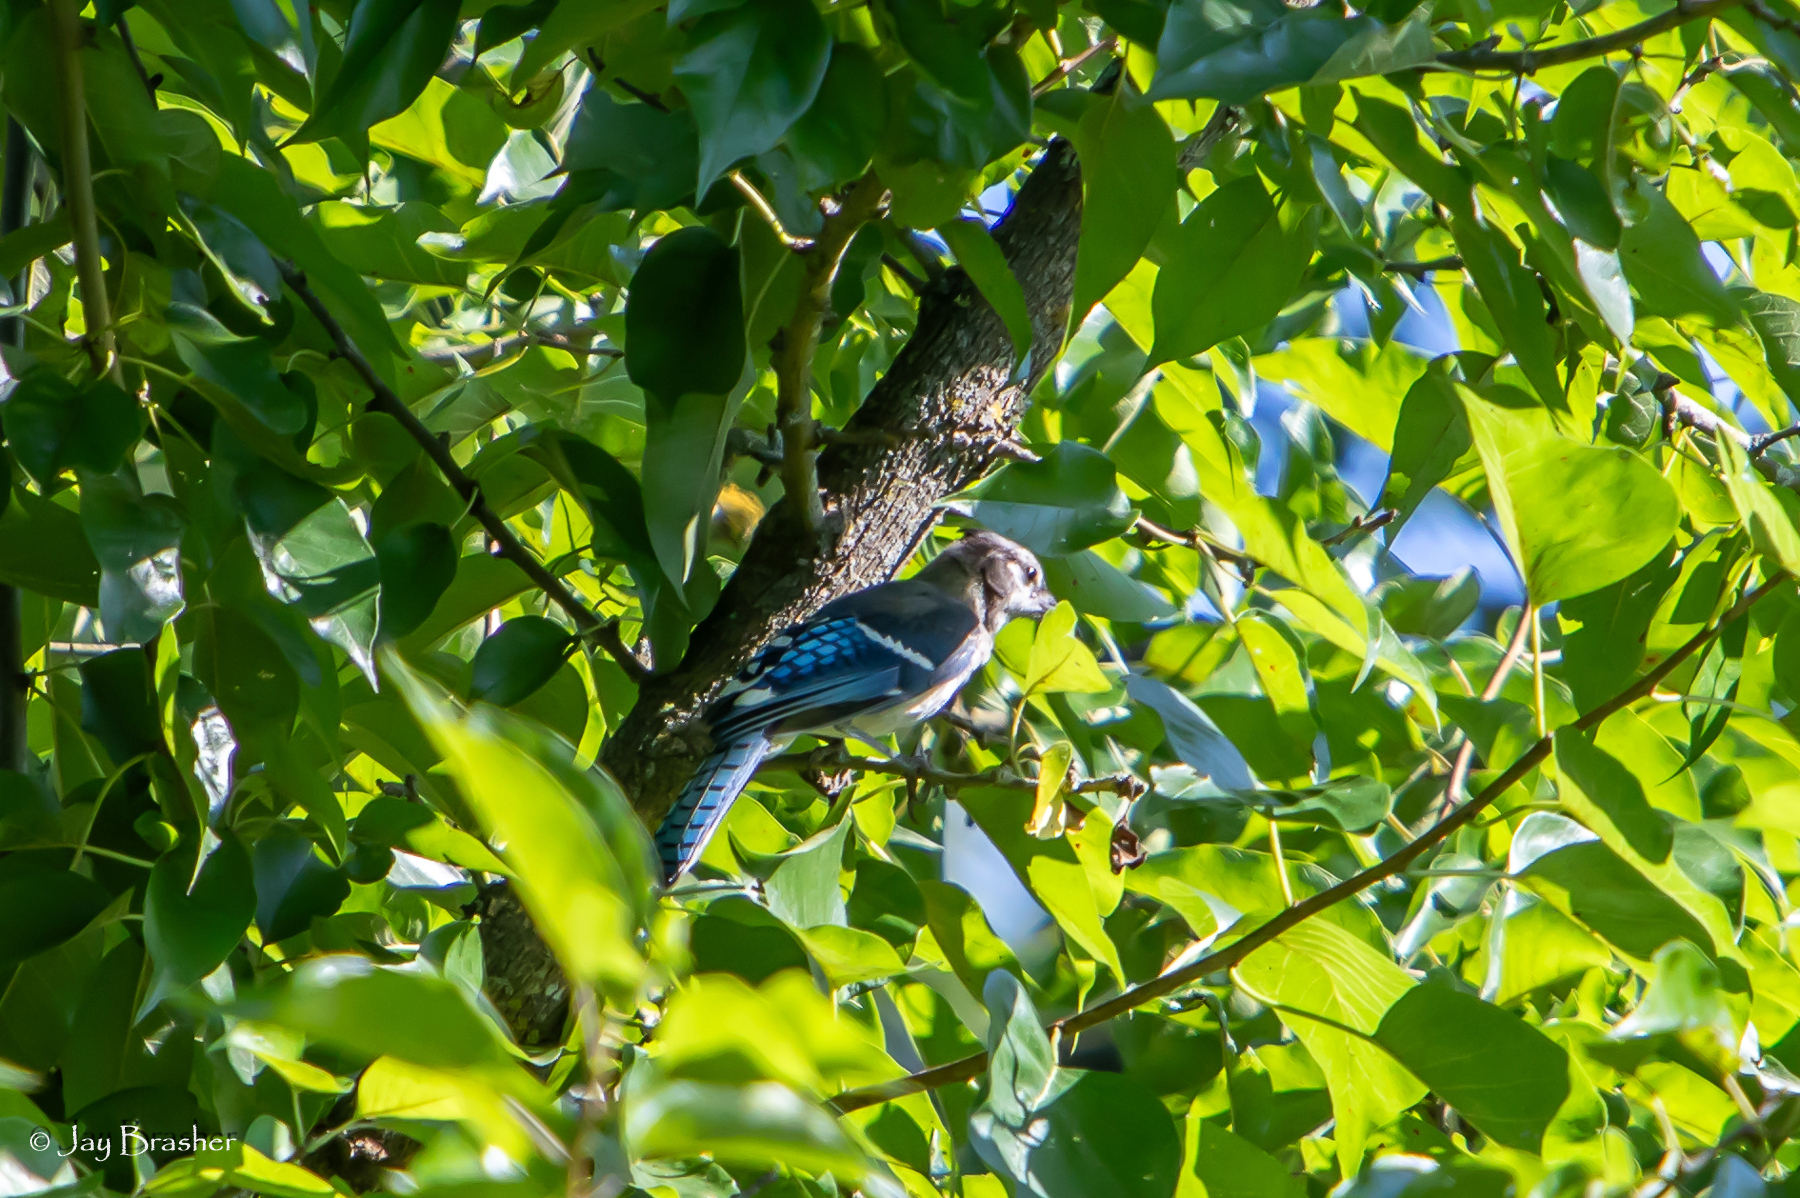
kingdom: Animalia
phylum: Chordata
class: Aves
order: Passeriformes
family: Corvidae
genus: Cyanocitta
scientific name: Cyanocitta cristata
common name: Blue jay
